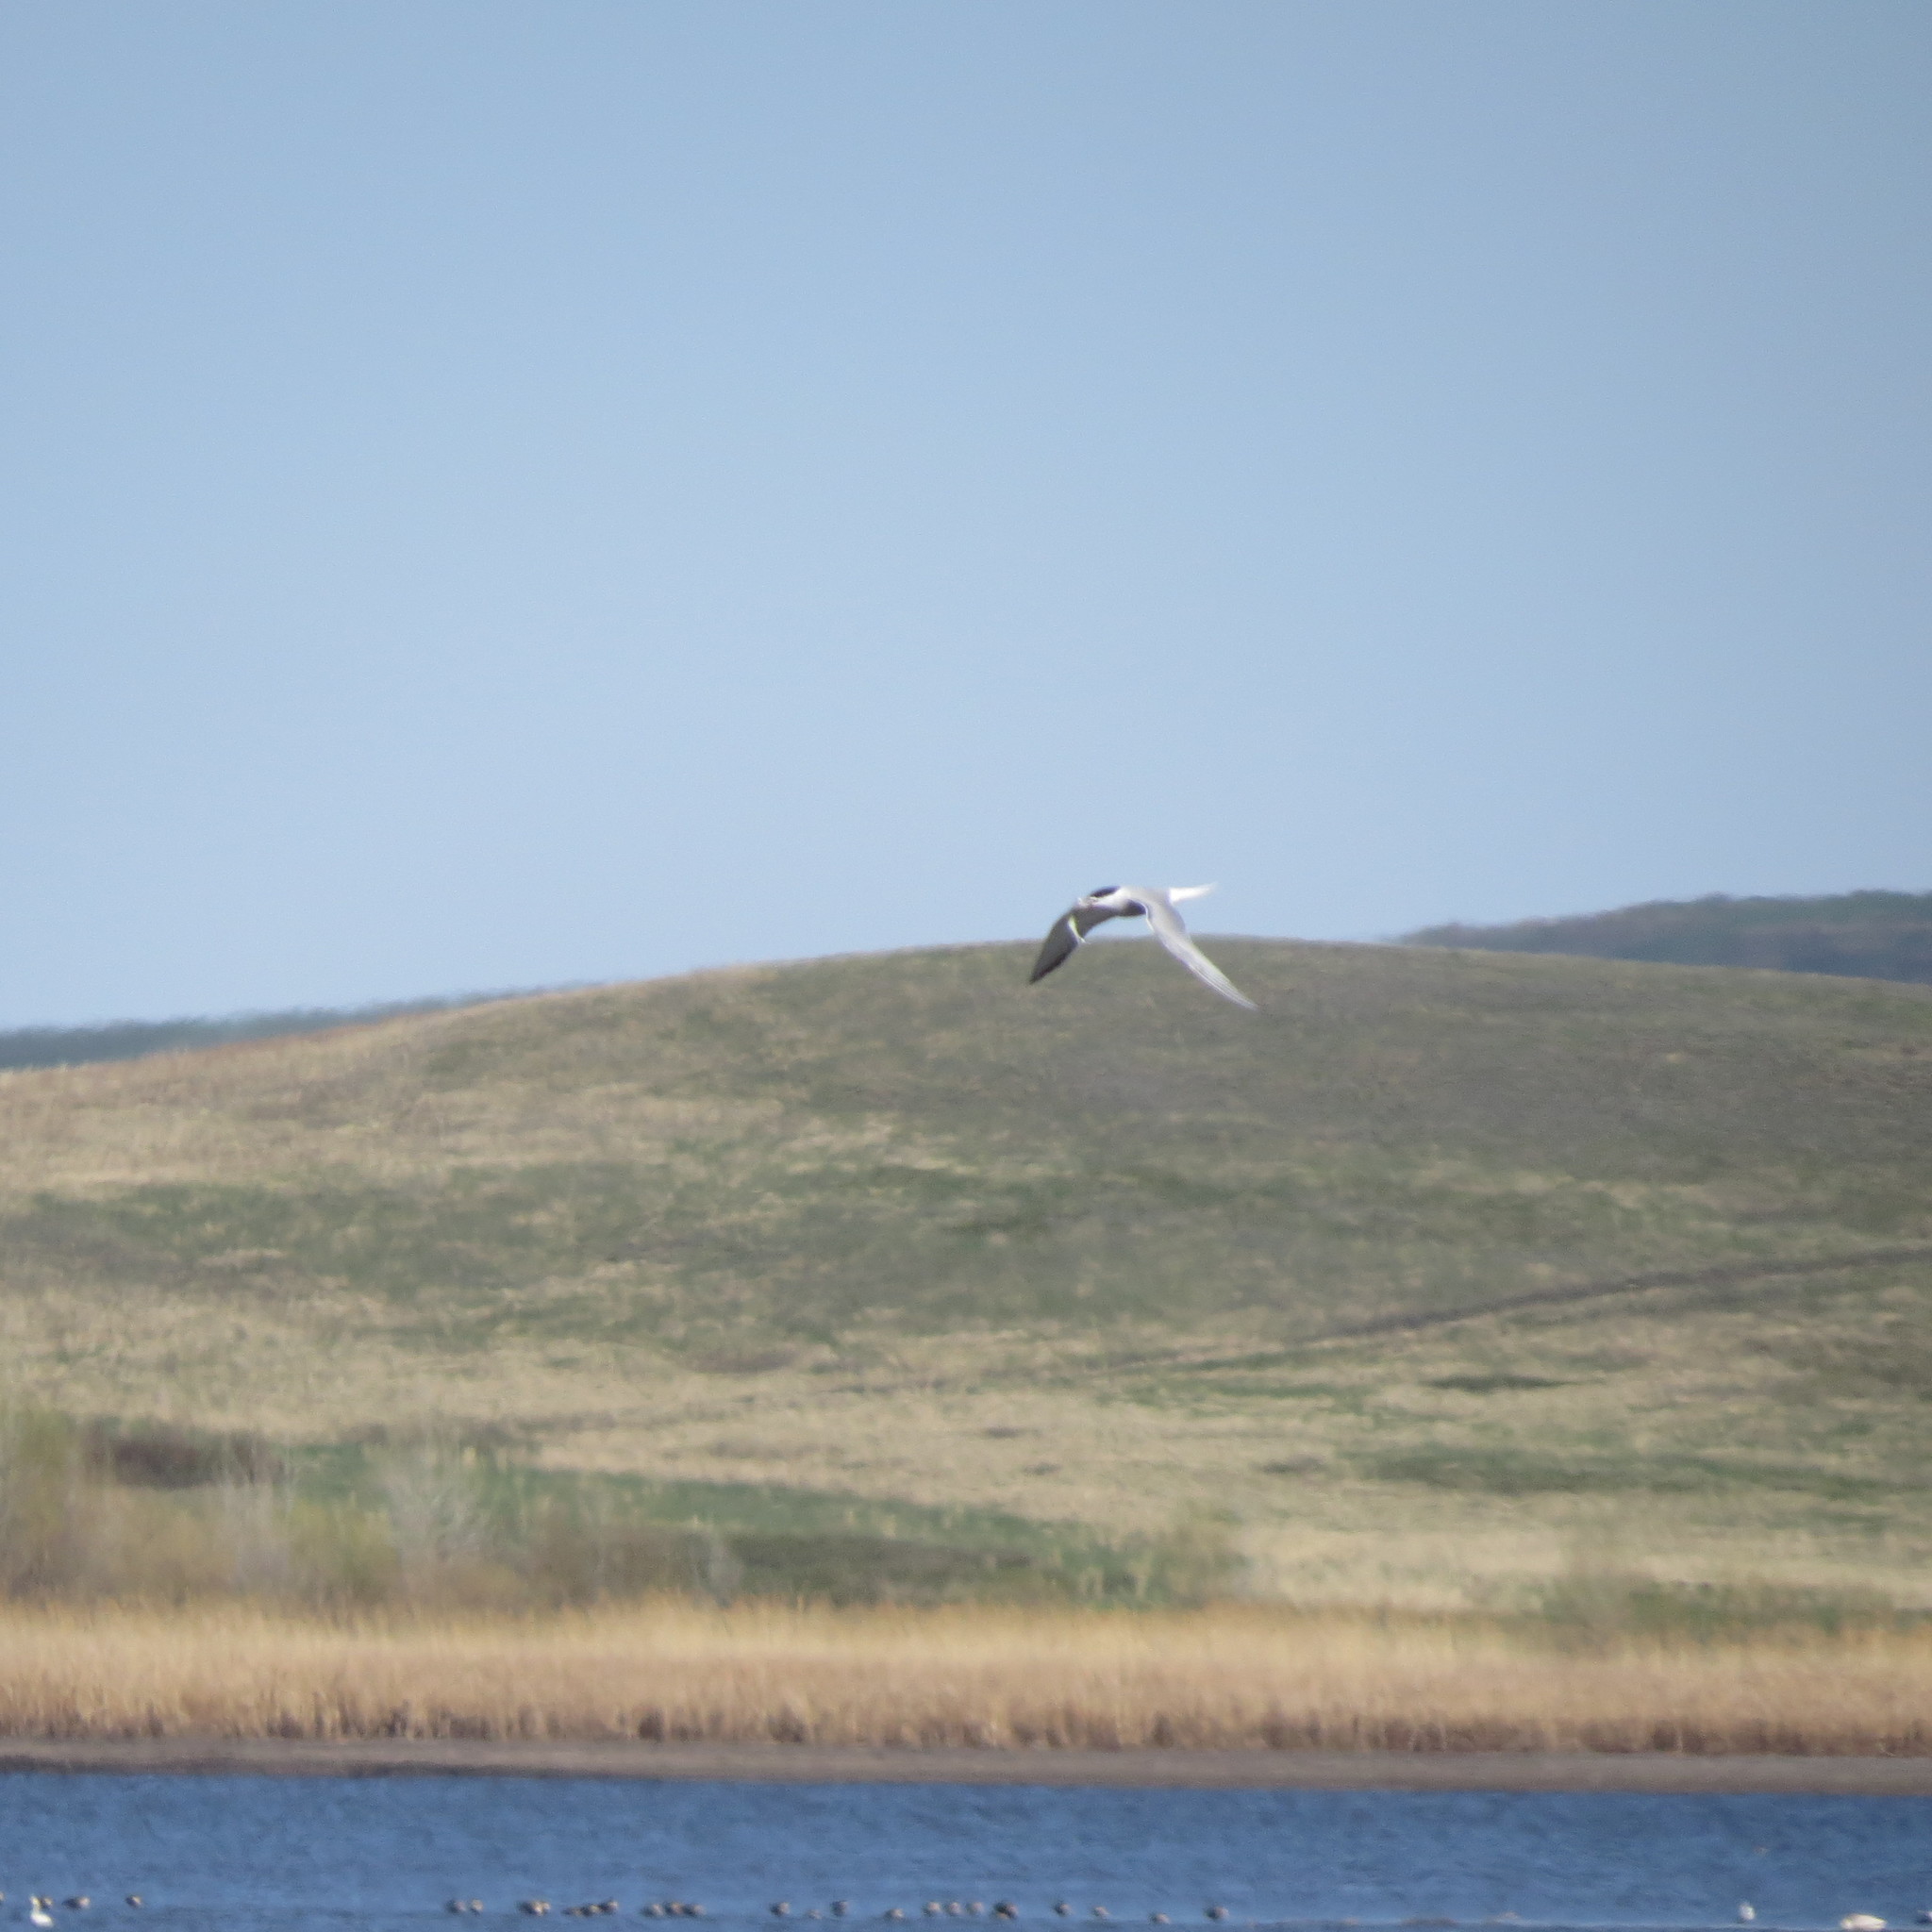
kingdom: Animalia
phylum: Chordata
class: Aves
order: Charadriiformes
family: Laridae
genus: Sterna
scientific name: Sterna hirundo
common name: Common tern
